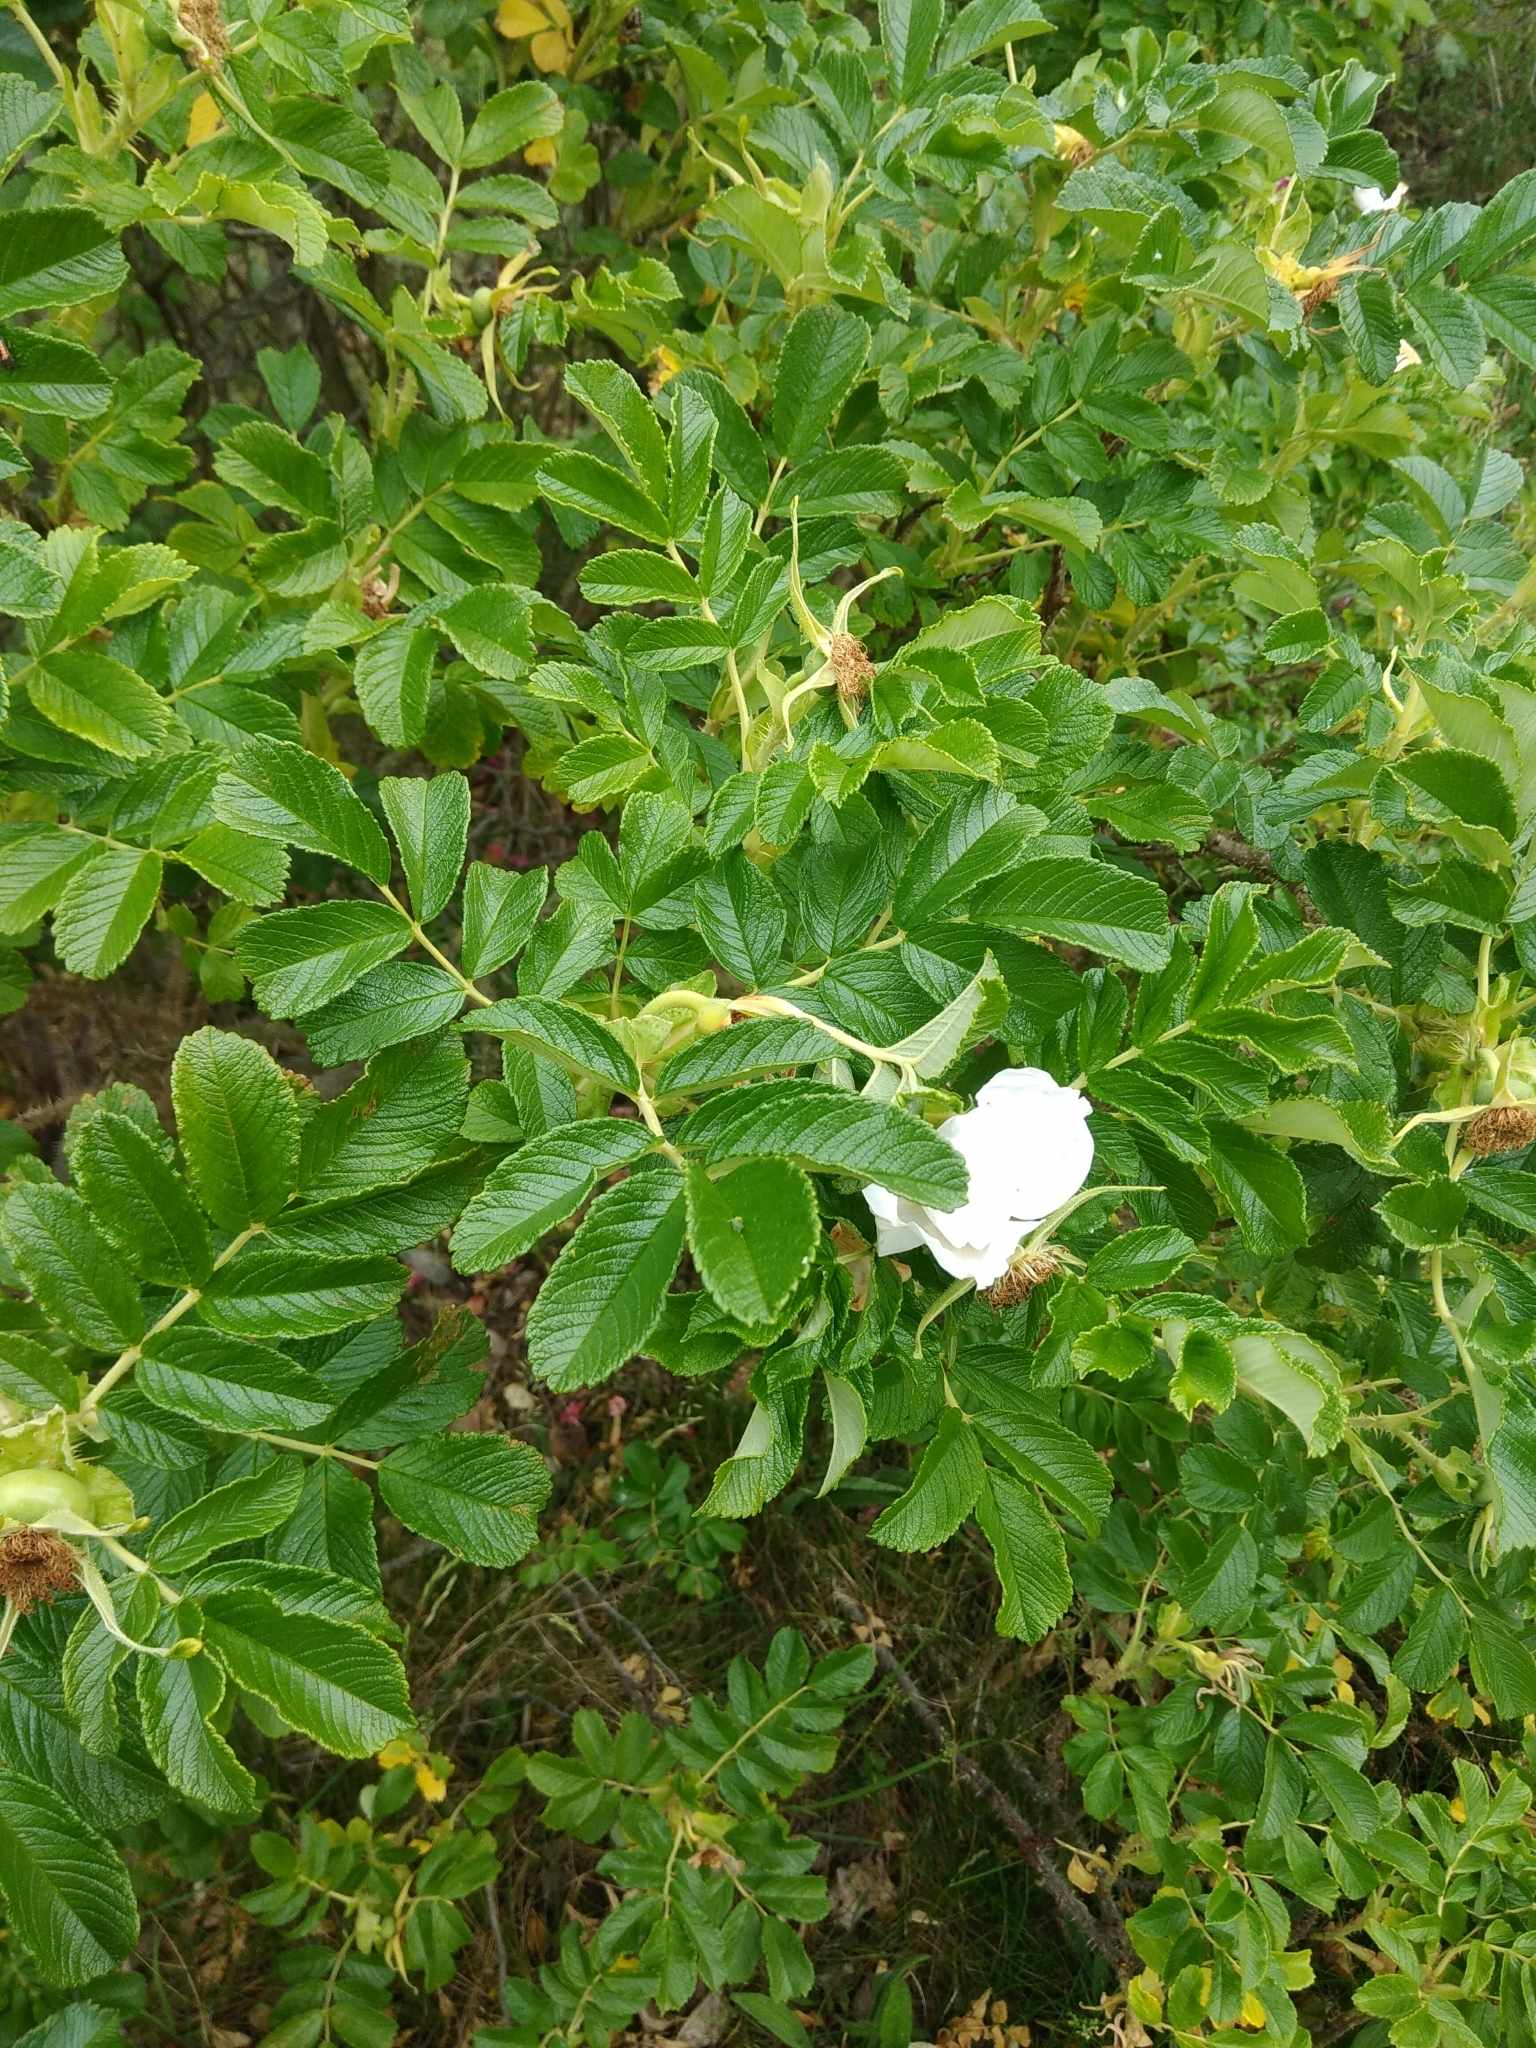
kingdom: Plantae
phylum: Tracheophyta
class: Magnoliopsida
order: Rosales
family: Rosaceae
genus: Rosa
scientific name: Rosa rugosa
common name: Japanese rose
